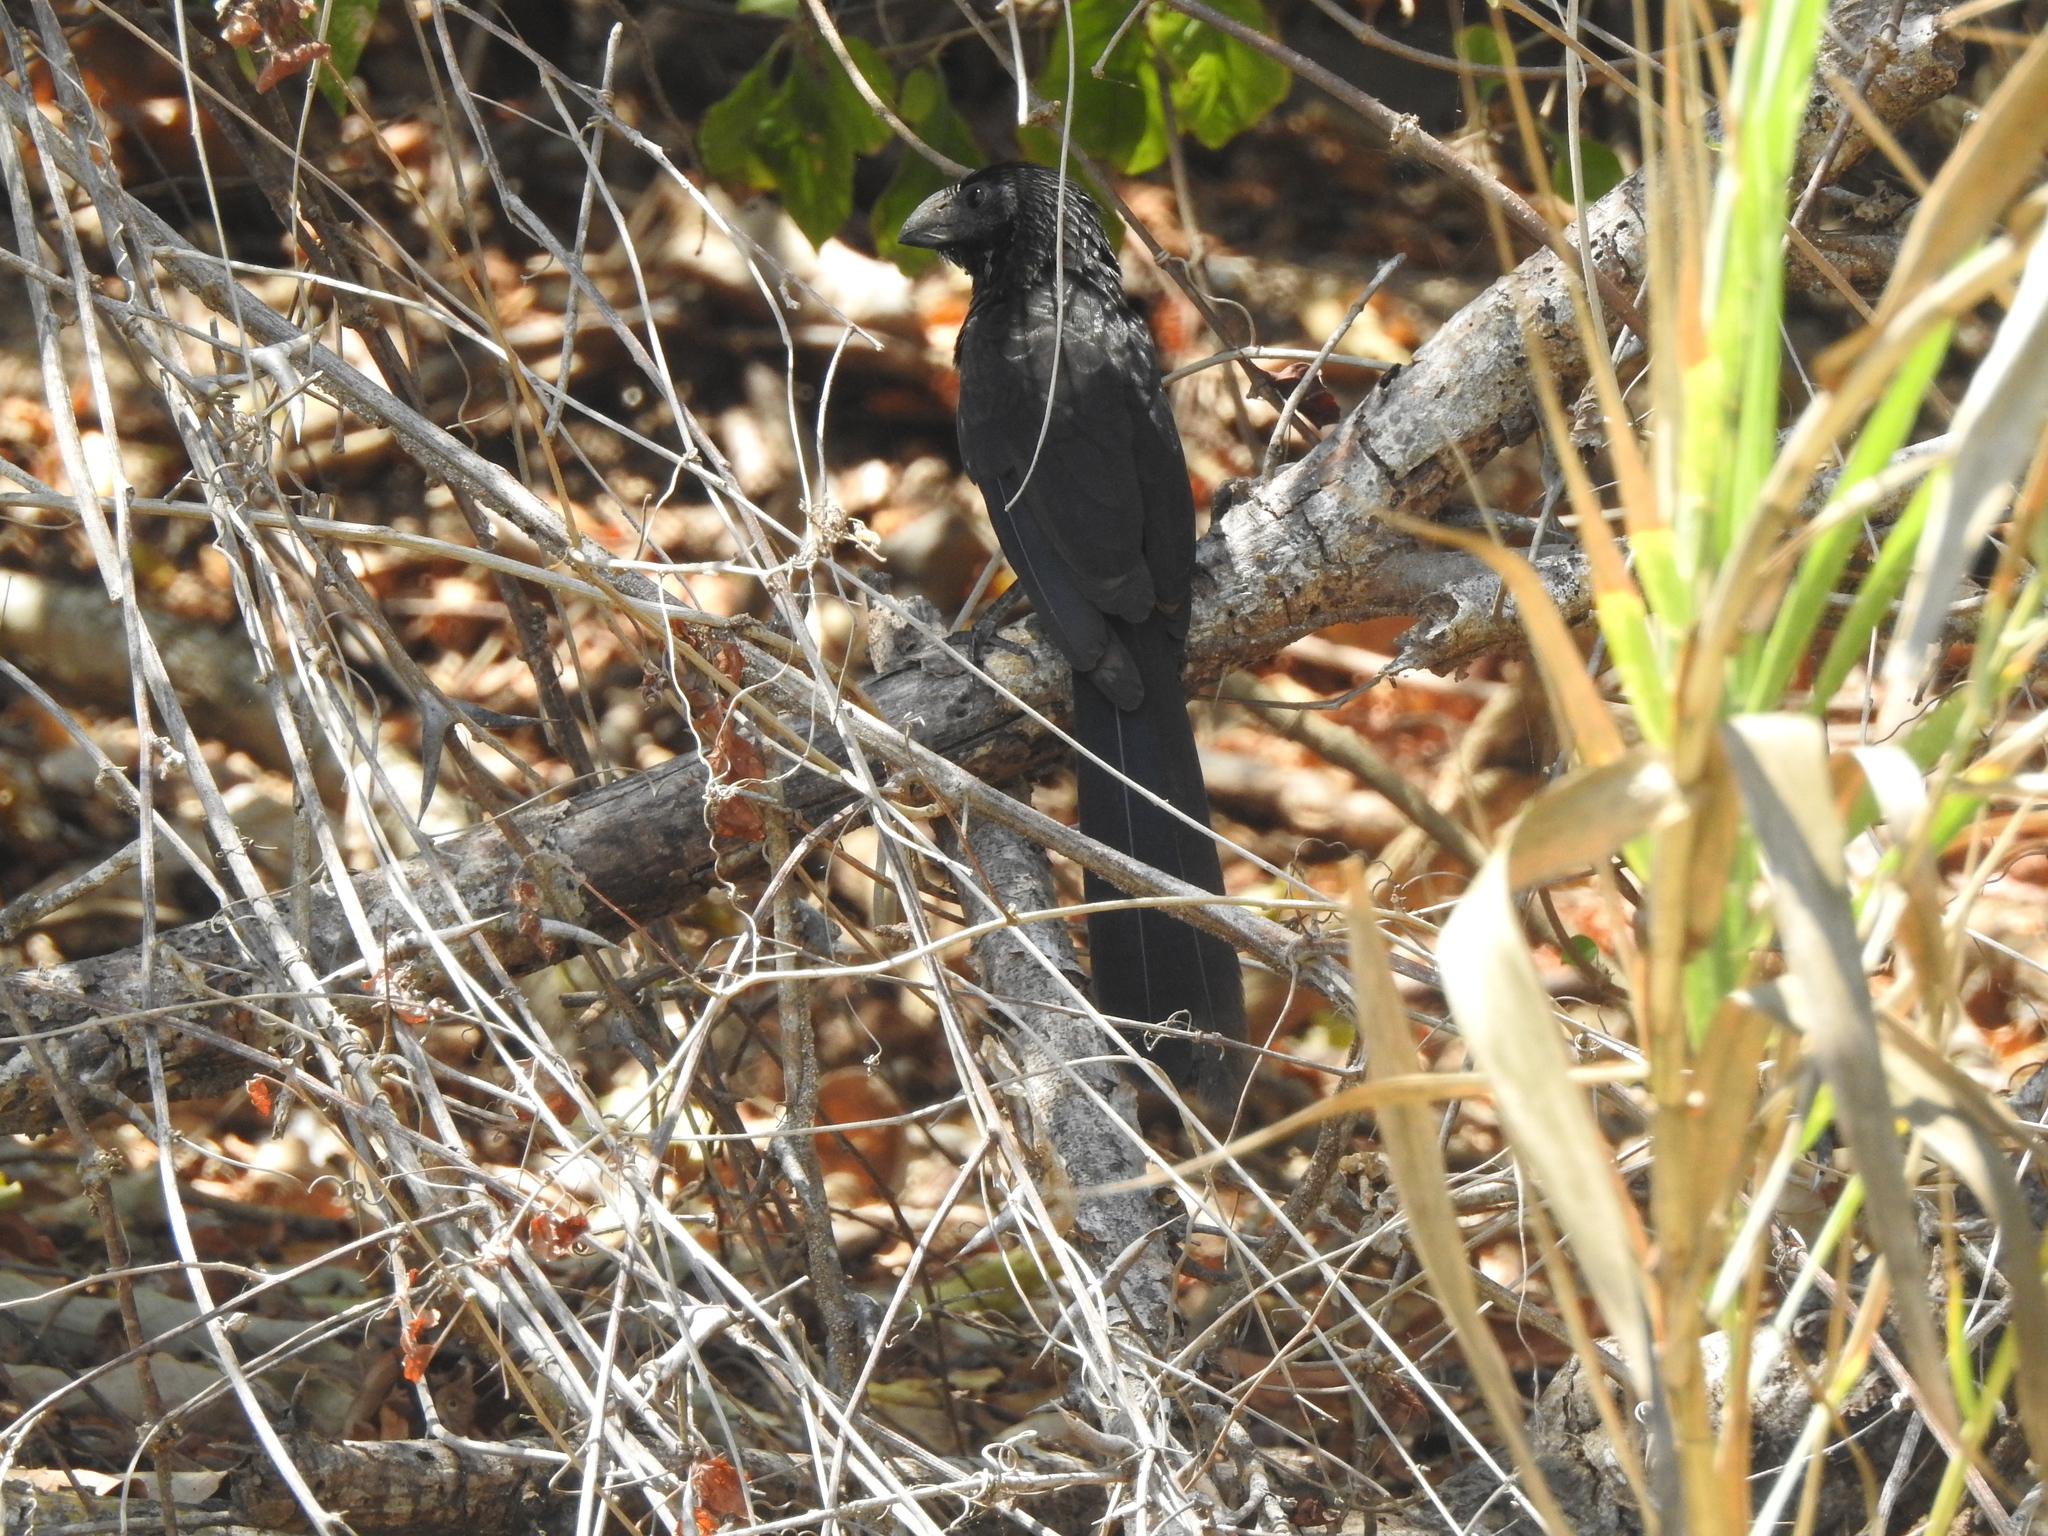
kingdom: Animalia
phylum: Chordata
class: Aves
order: Cuculiformes
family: Cuculidae
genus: Crotophaga
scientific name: Crotophaga sulcirostris
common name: Groove-billed ani
